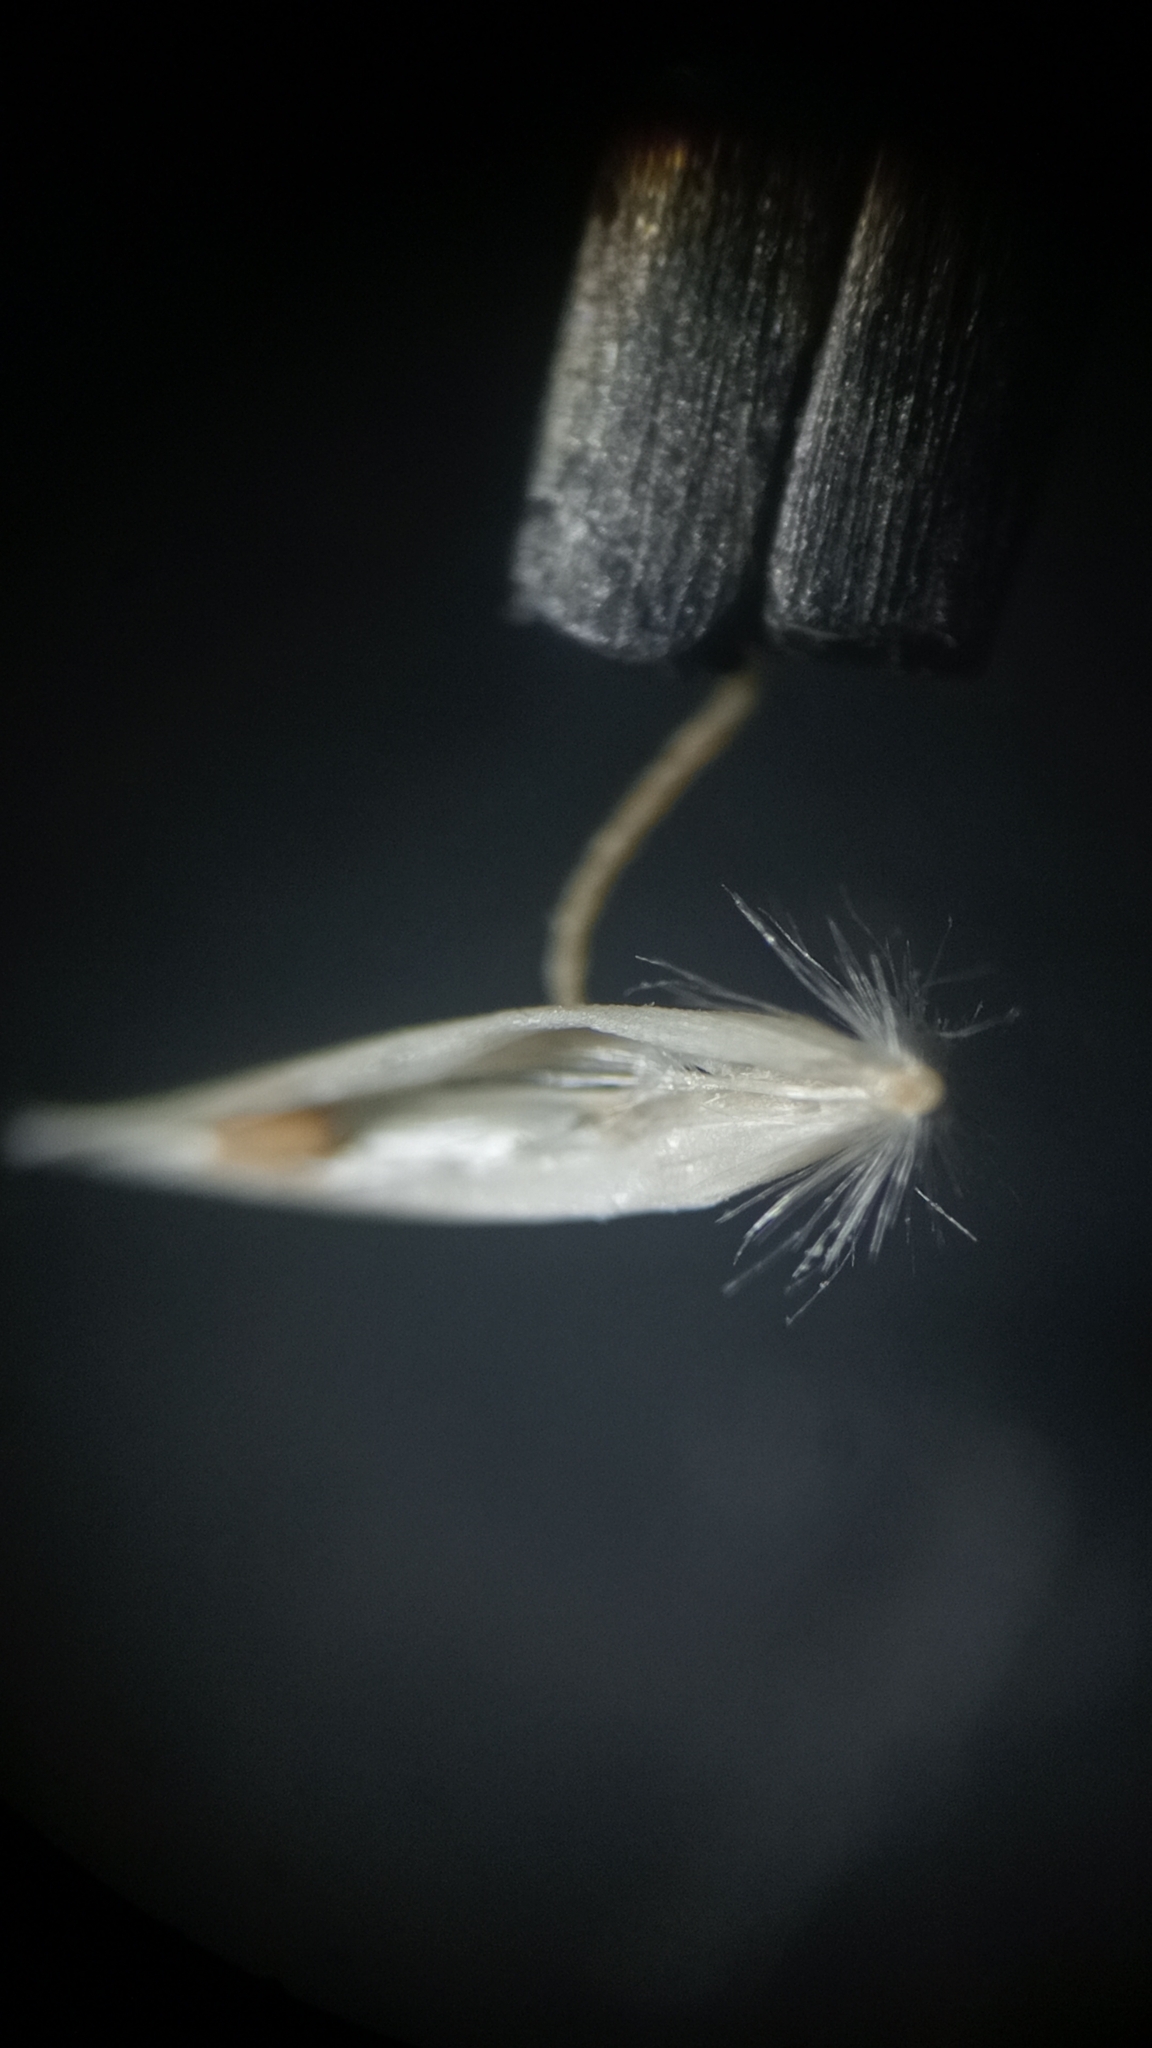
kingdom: Plantae
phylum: Tracheophyta
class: Liliopsida
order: Poales
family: Poaceae
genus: Calamagrostis
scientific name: Calamagrostis avenoides
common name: Mountain oat grass
